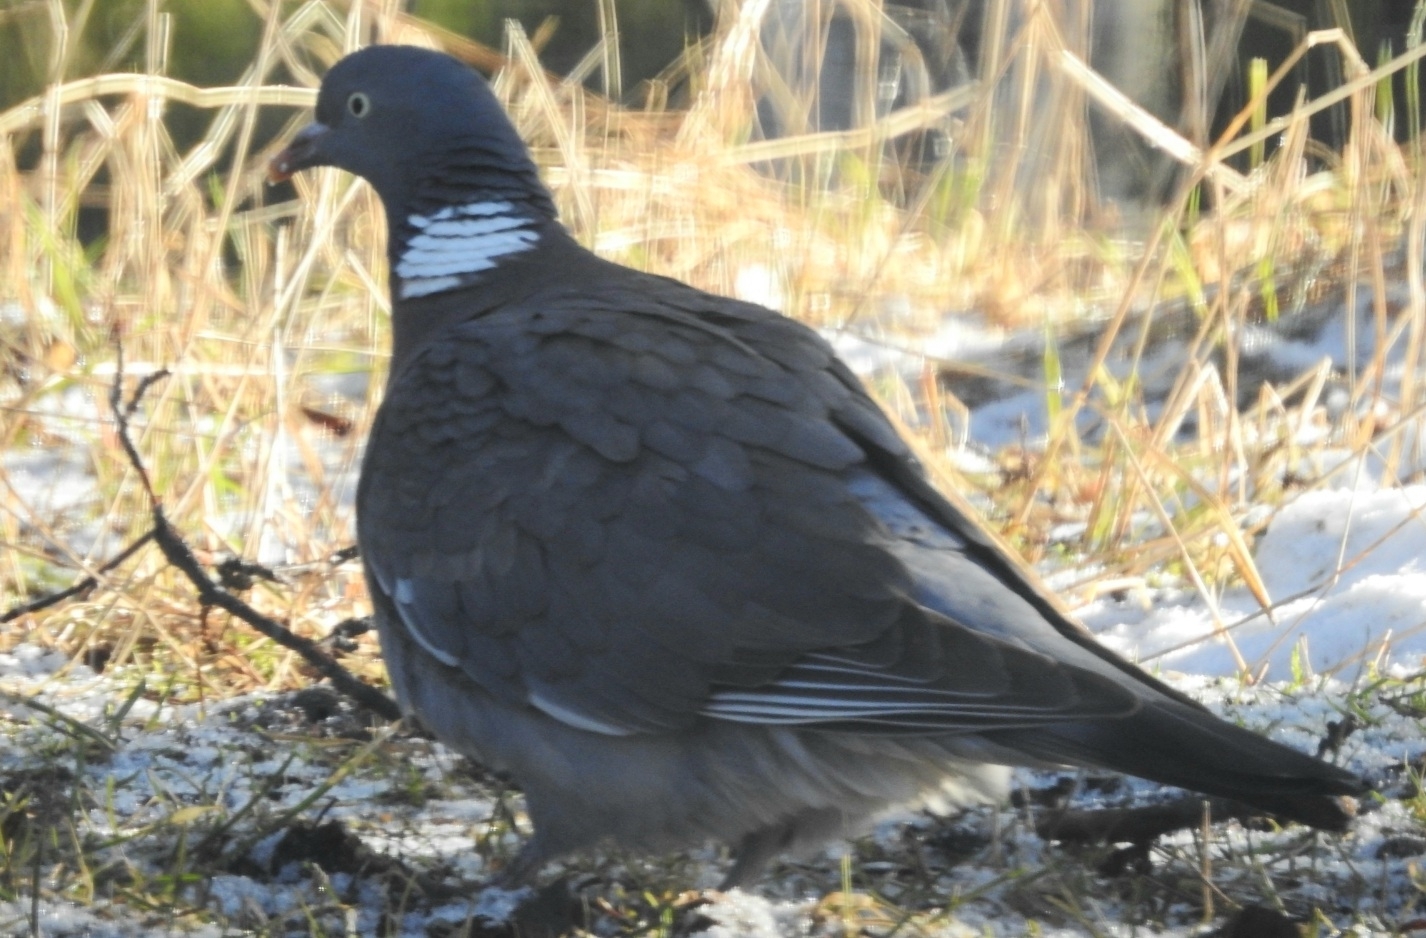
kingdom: Animalia
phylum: Chordata
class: Aves
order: Columbiformes
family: Columbidae
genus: Columba
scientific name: Columba palumbus
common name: Common wood pigeon
